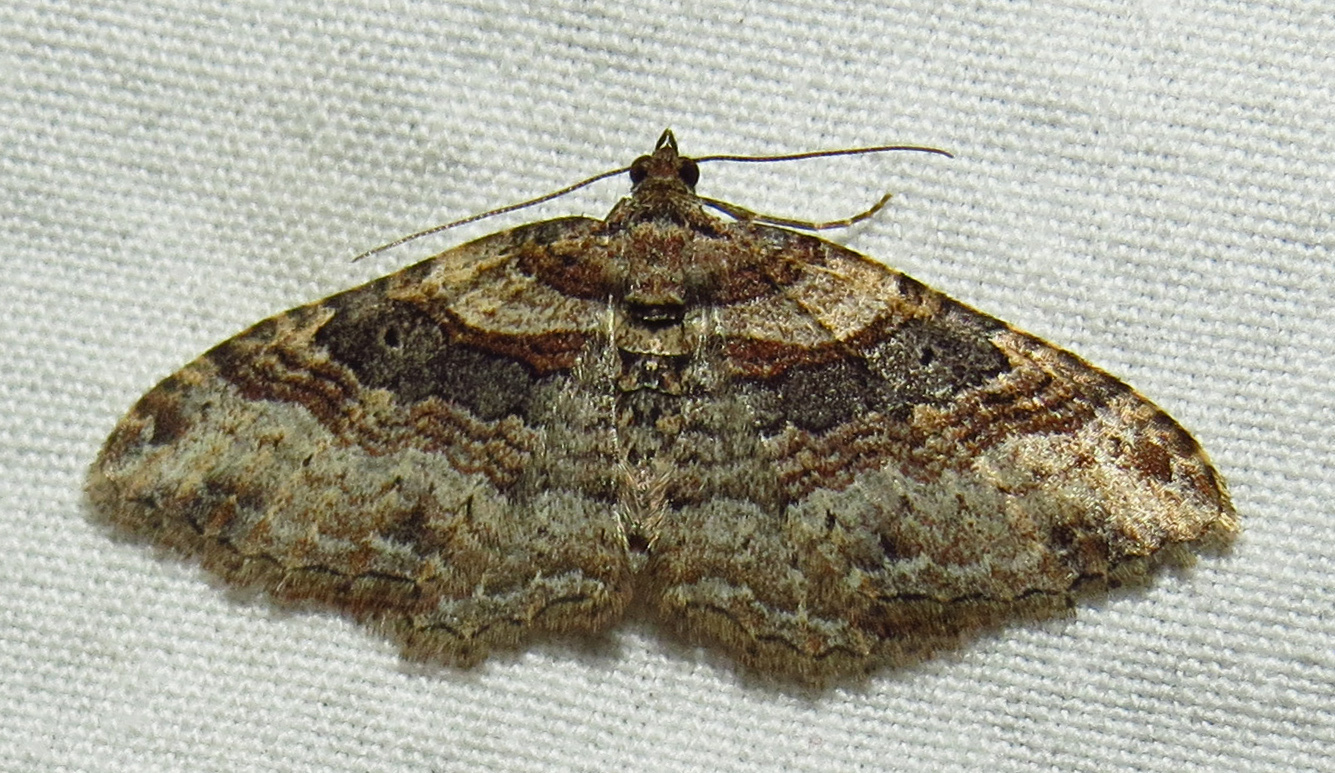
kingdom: Animalia
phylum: Arthropoda
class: Insecta
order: Lepidoptera
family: Geometridae
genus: Costaconvexa
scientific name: Costaconvexa centrostrigaria
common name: Bent-line carpet
